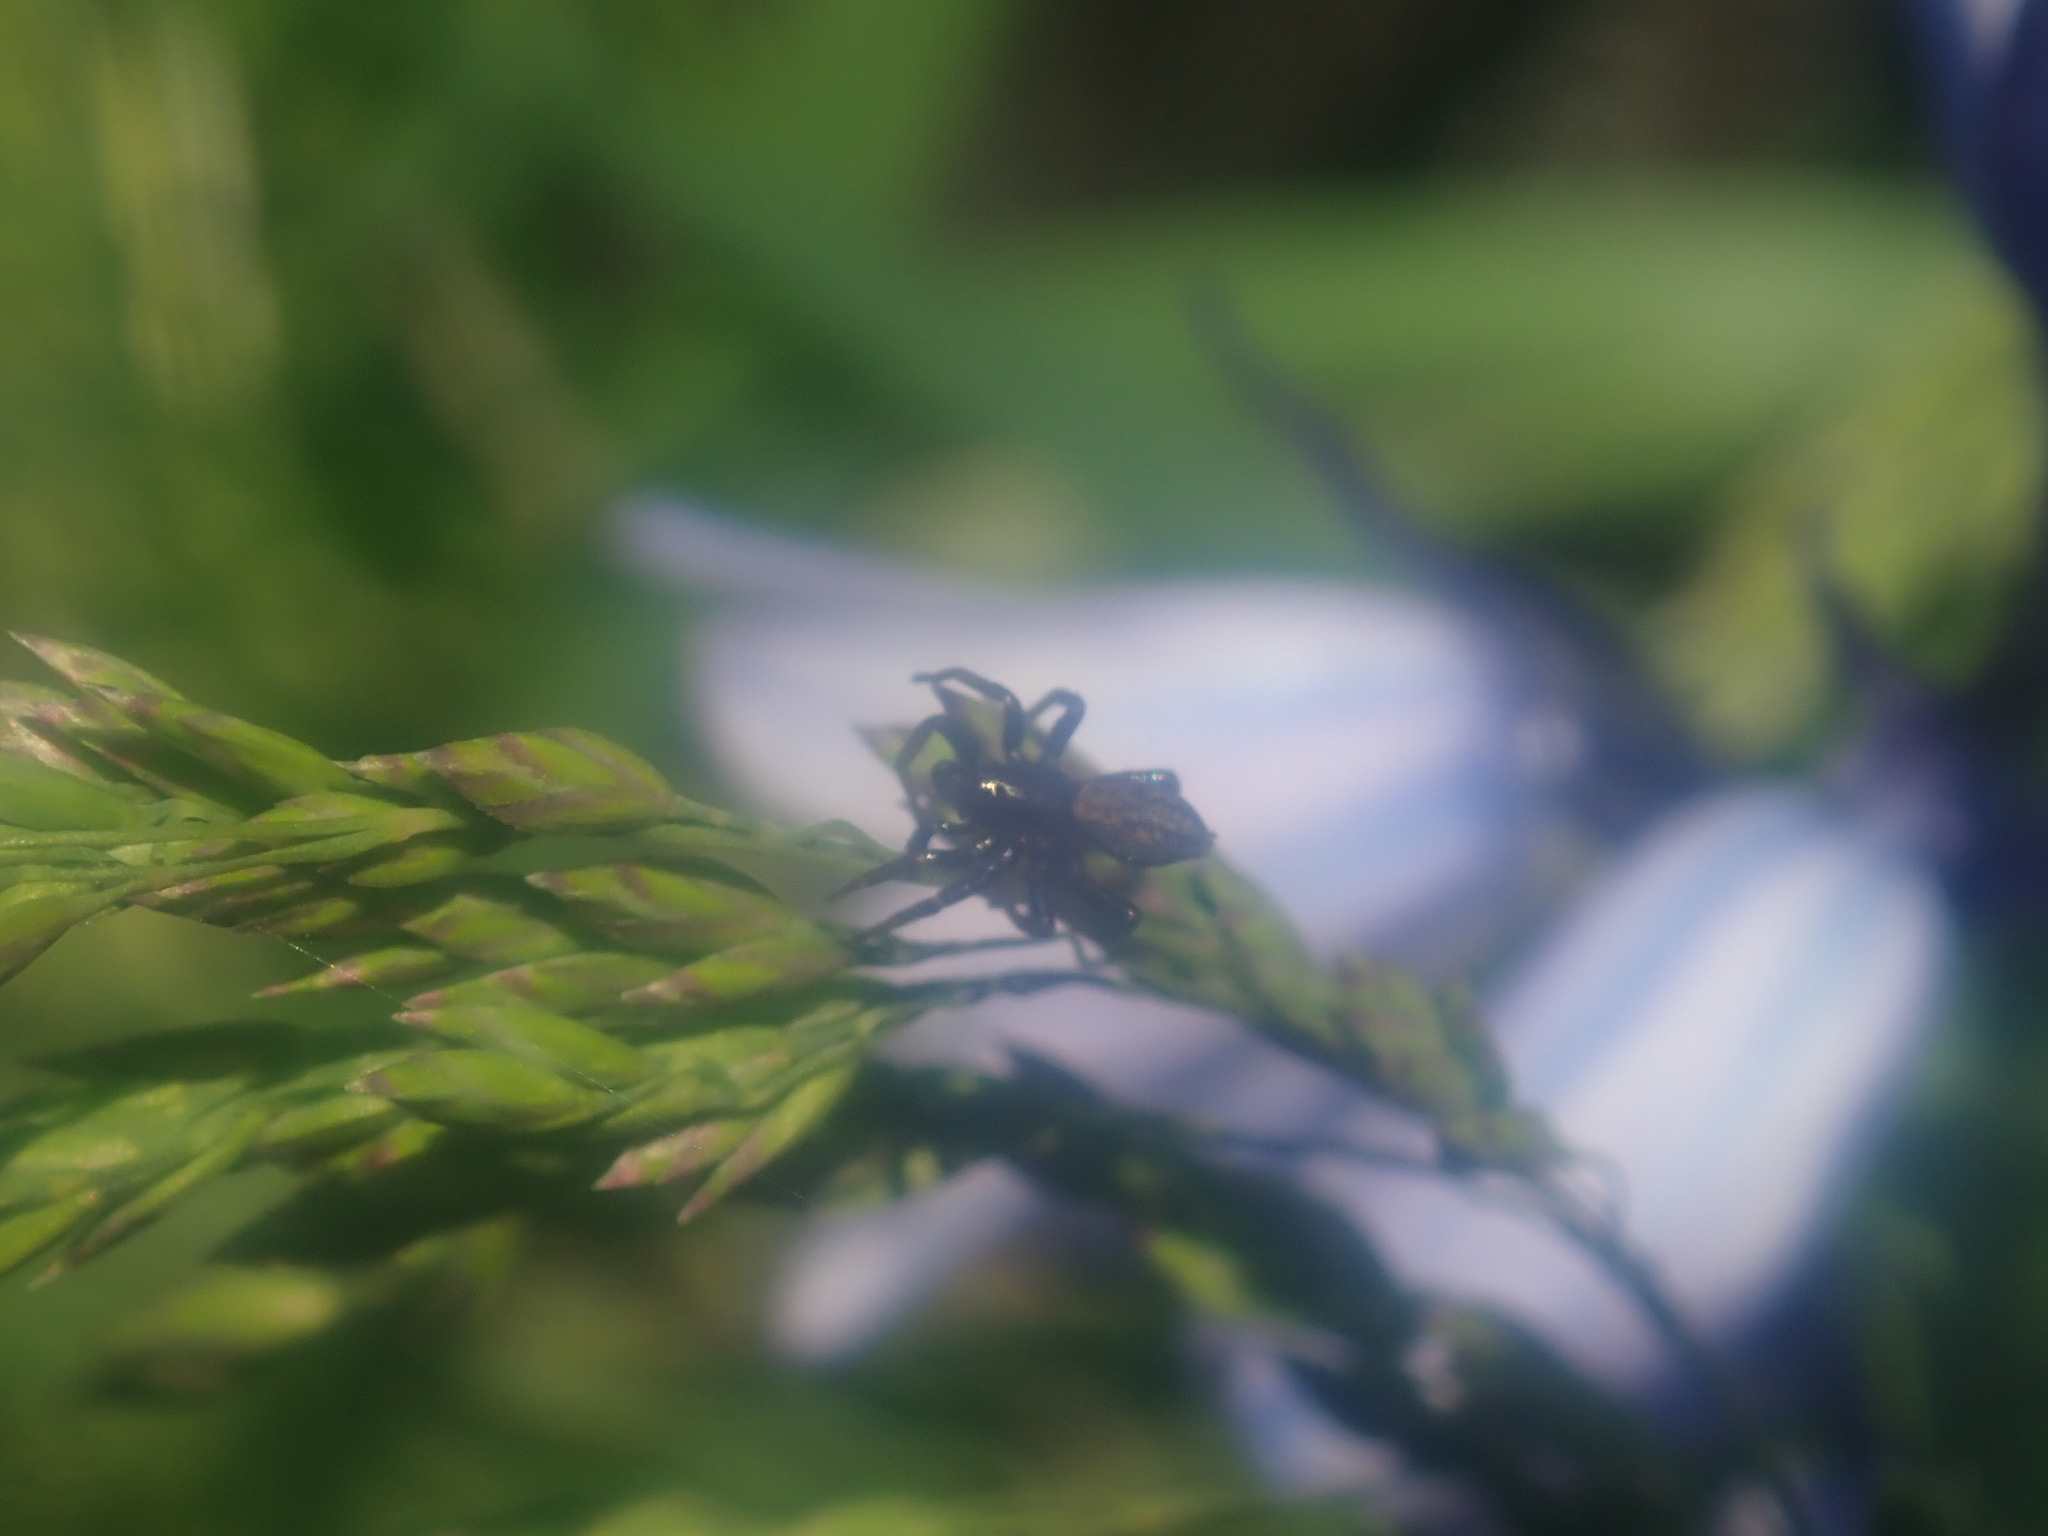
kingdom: Animalia
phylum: Arthropoda
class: Arachnida
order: Araneae
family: Lycosidae
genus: Allocosa
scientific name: Allocosa funerea
